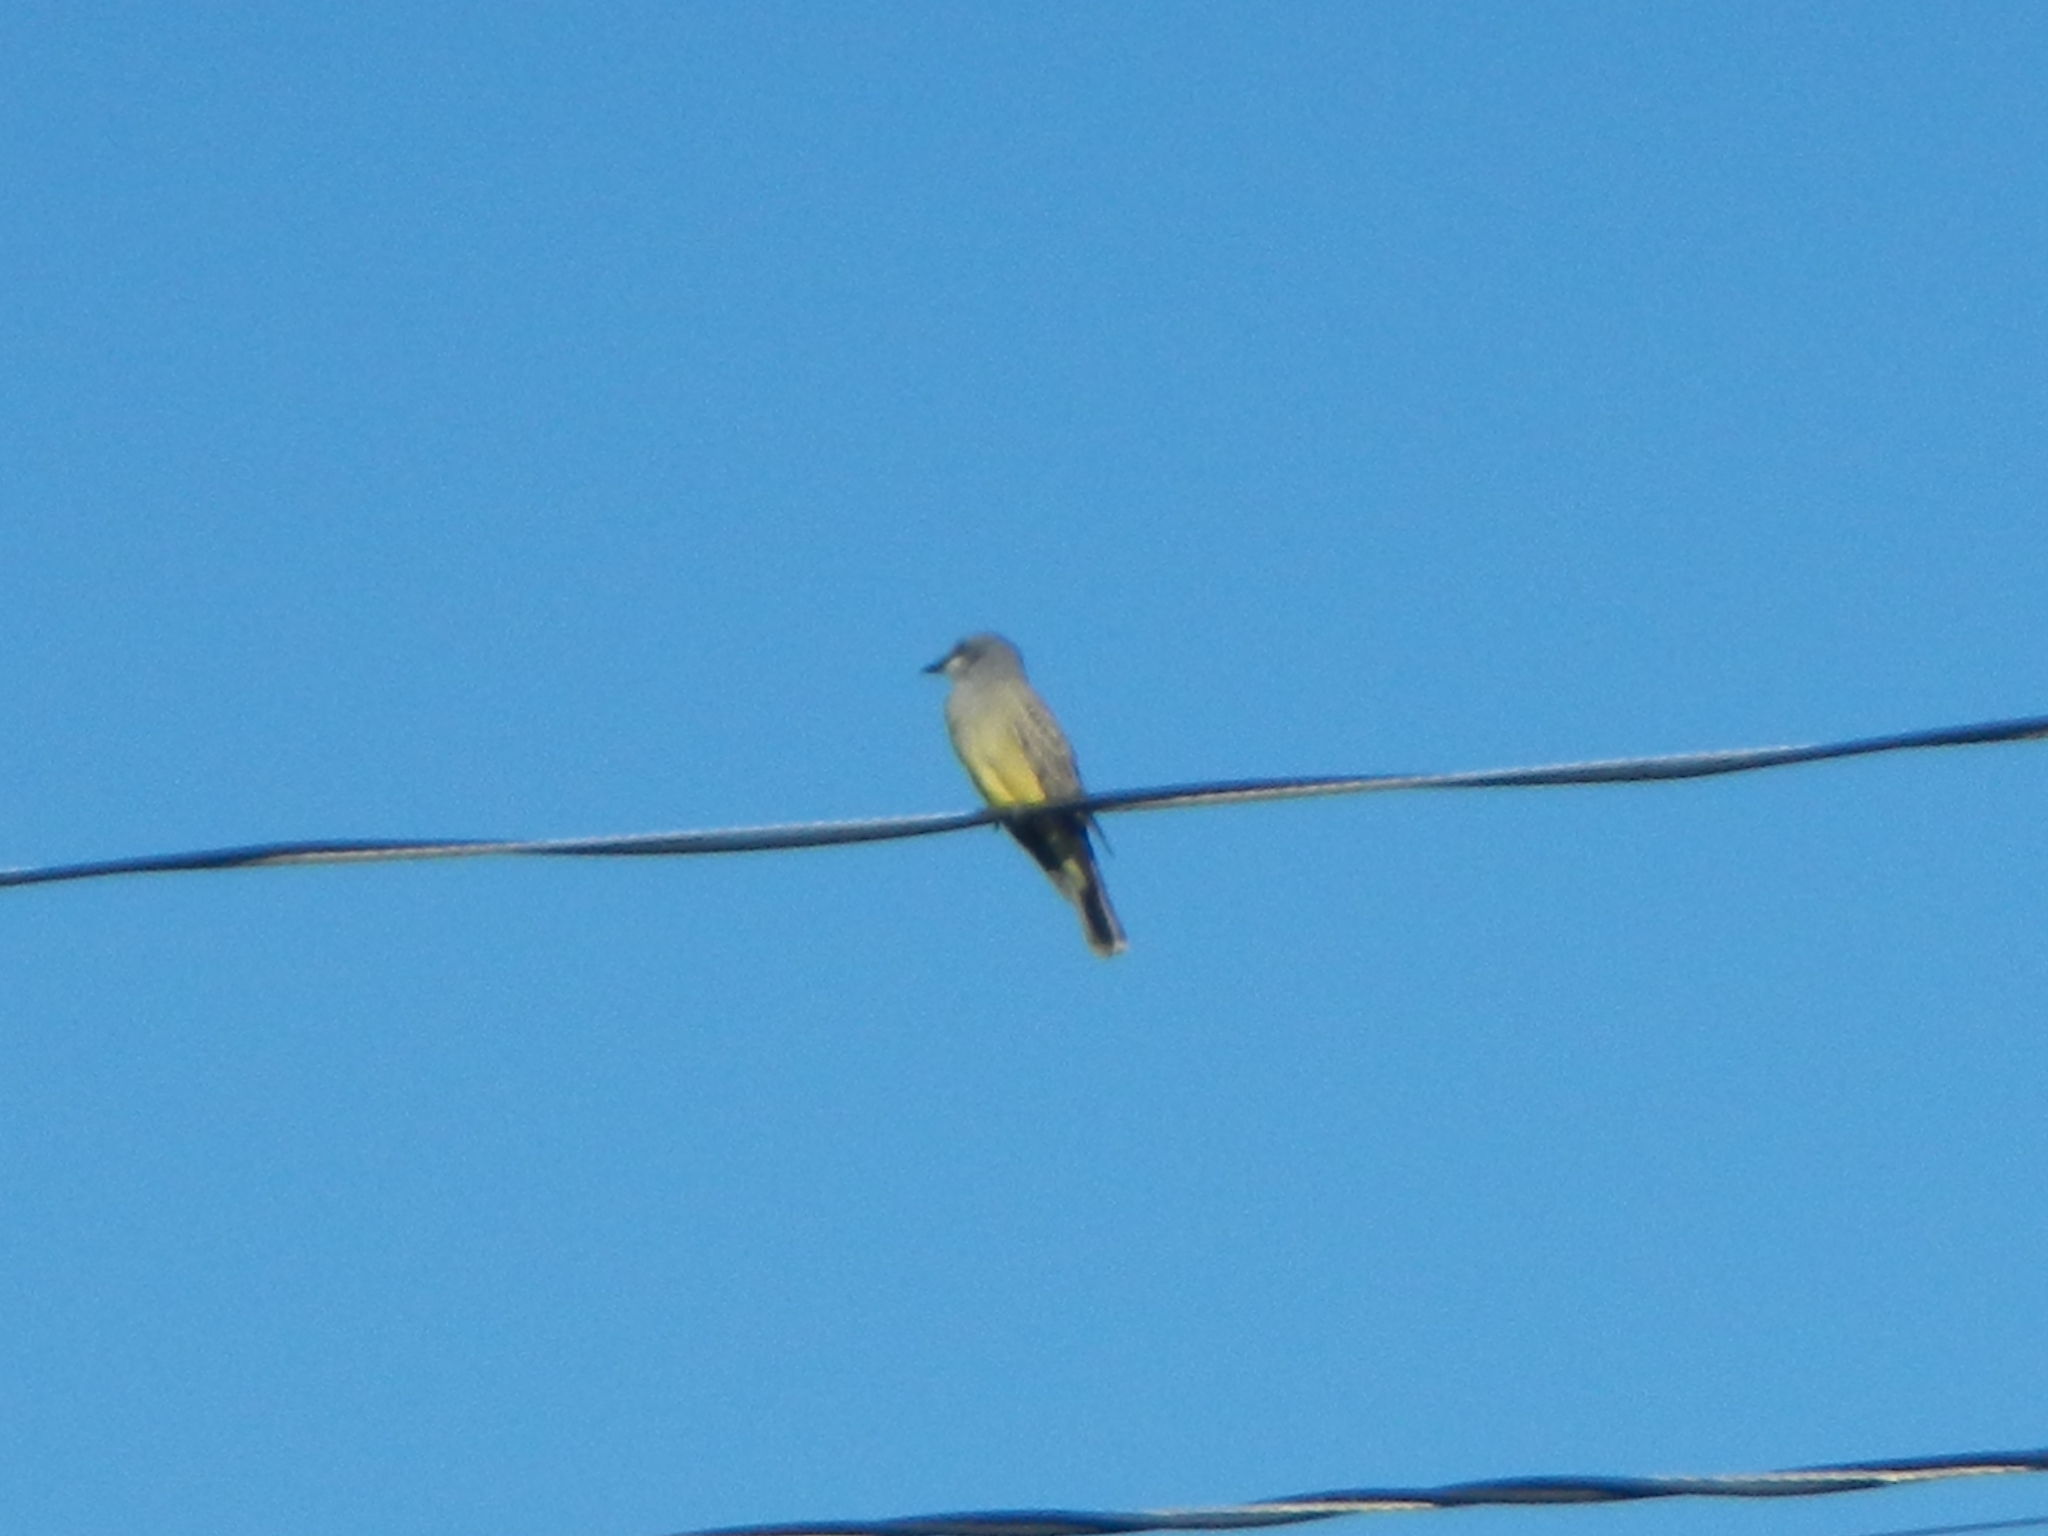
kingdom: Animalia
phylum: Chordata
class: Aves
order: Passeriformes
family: Tyrannidae
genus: Tyrannus
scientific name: Tyrannus vociferans
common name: Cassin's kingbird
